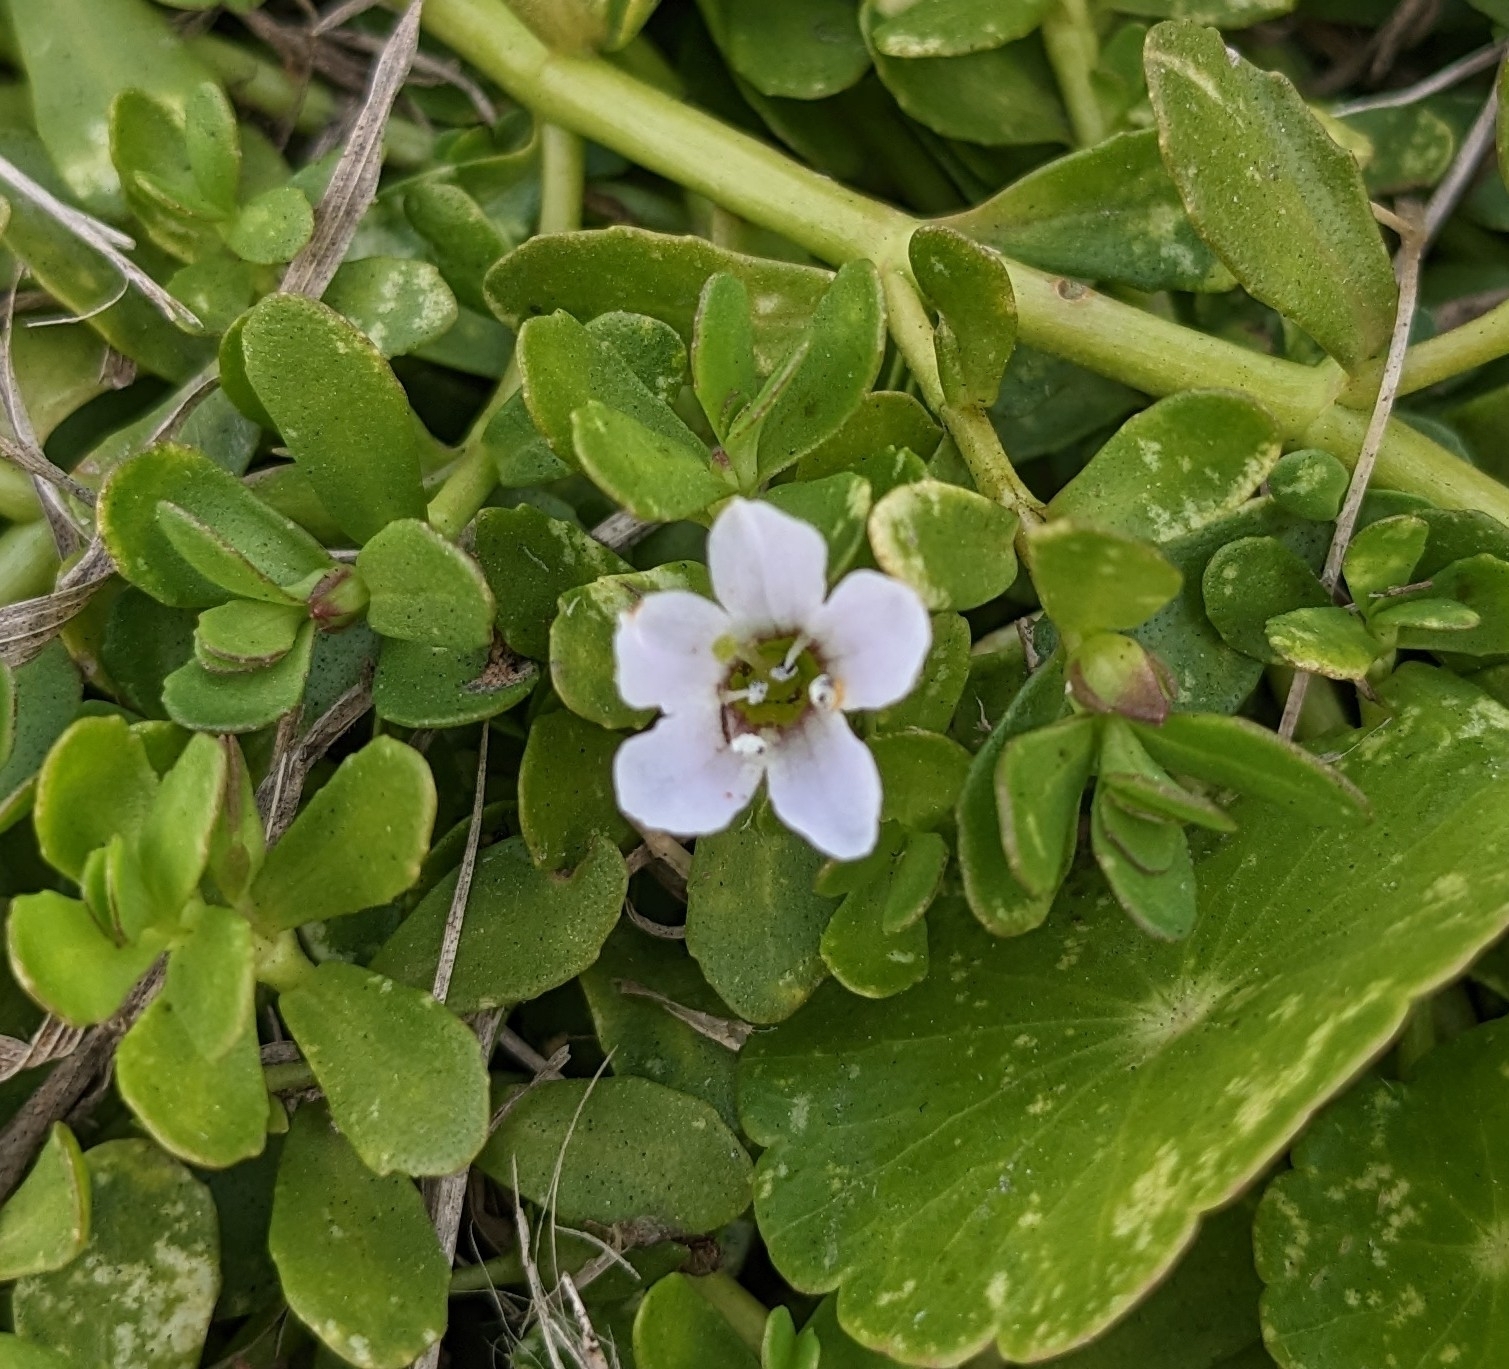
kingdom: Plantae
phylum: Tracheophyta
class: Magnoliopsida
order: Lamiales
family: Plantaginaceae
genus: Bacopa
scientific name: Bacopa monnieri
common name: Indian-pennywort
